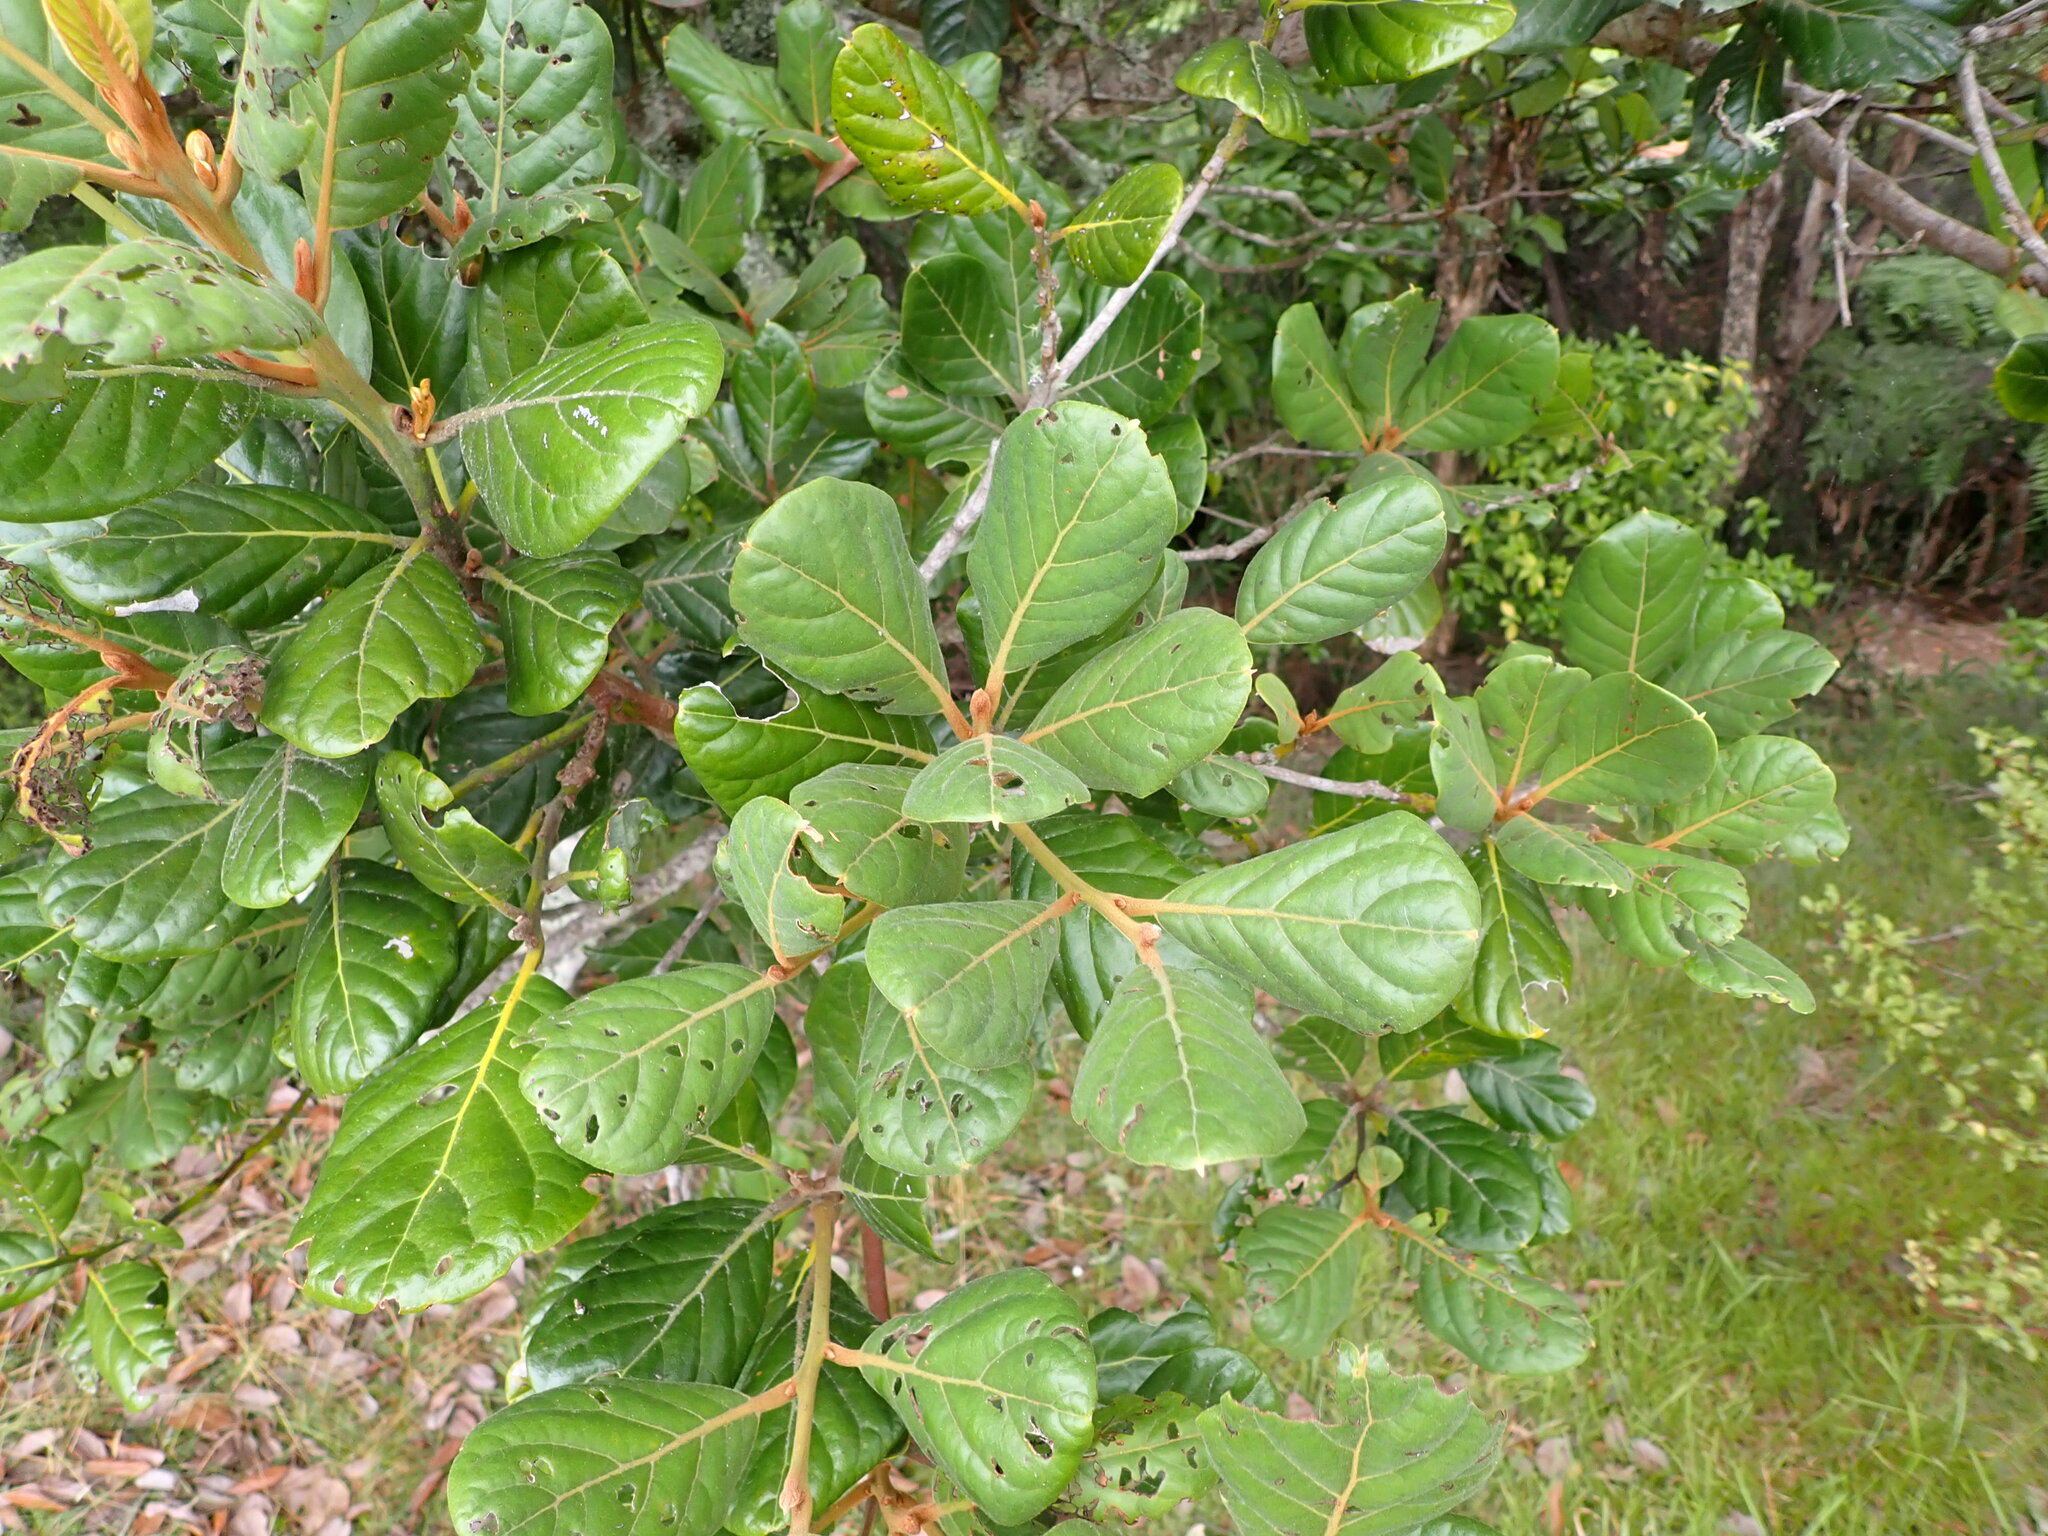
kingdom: Plantae
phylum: Tracheophyta
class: Magnoliopsida
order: Laurales
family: Lauraceae
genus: Beilschmiedia
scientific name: Beilschmiedia tarairi
